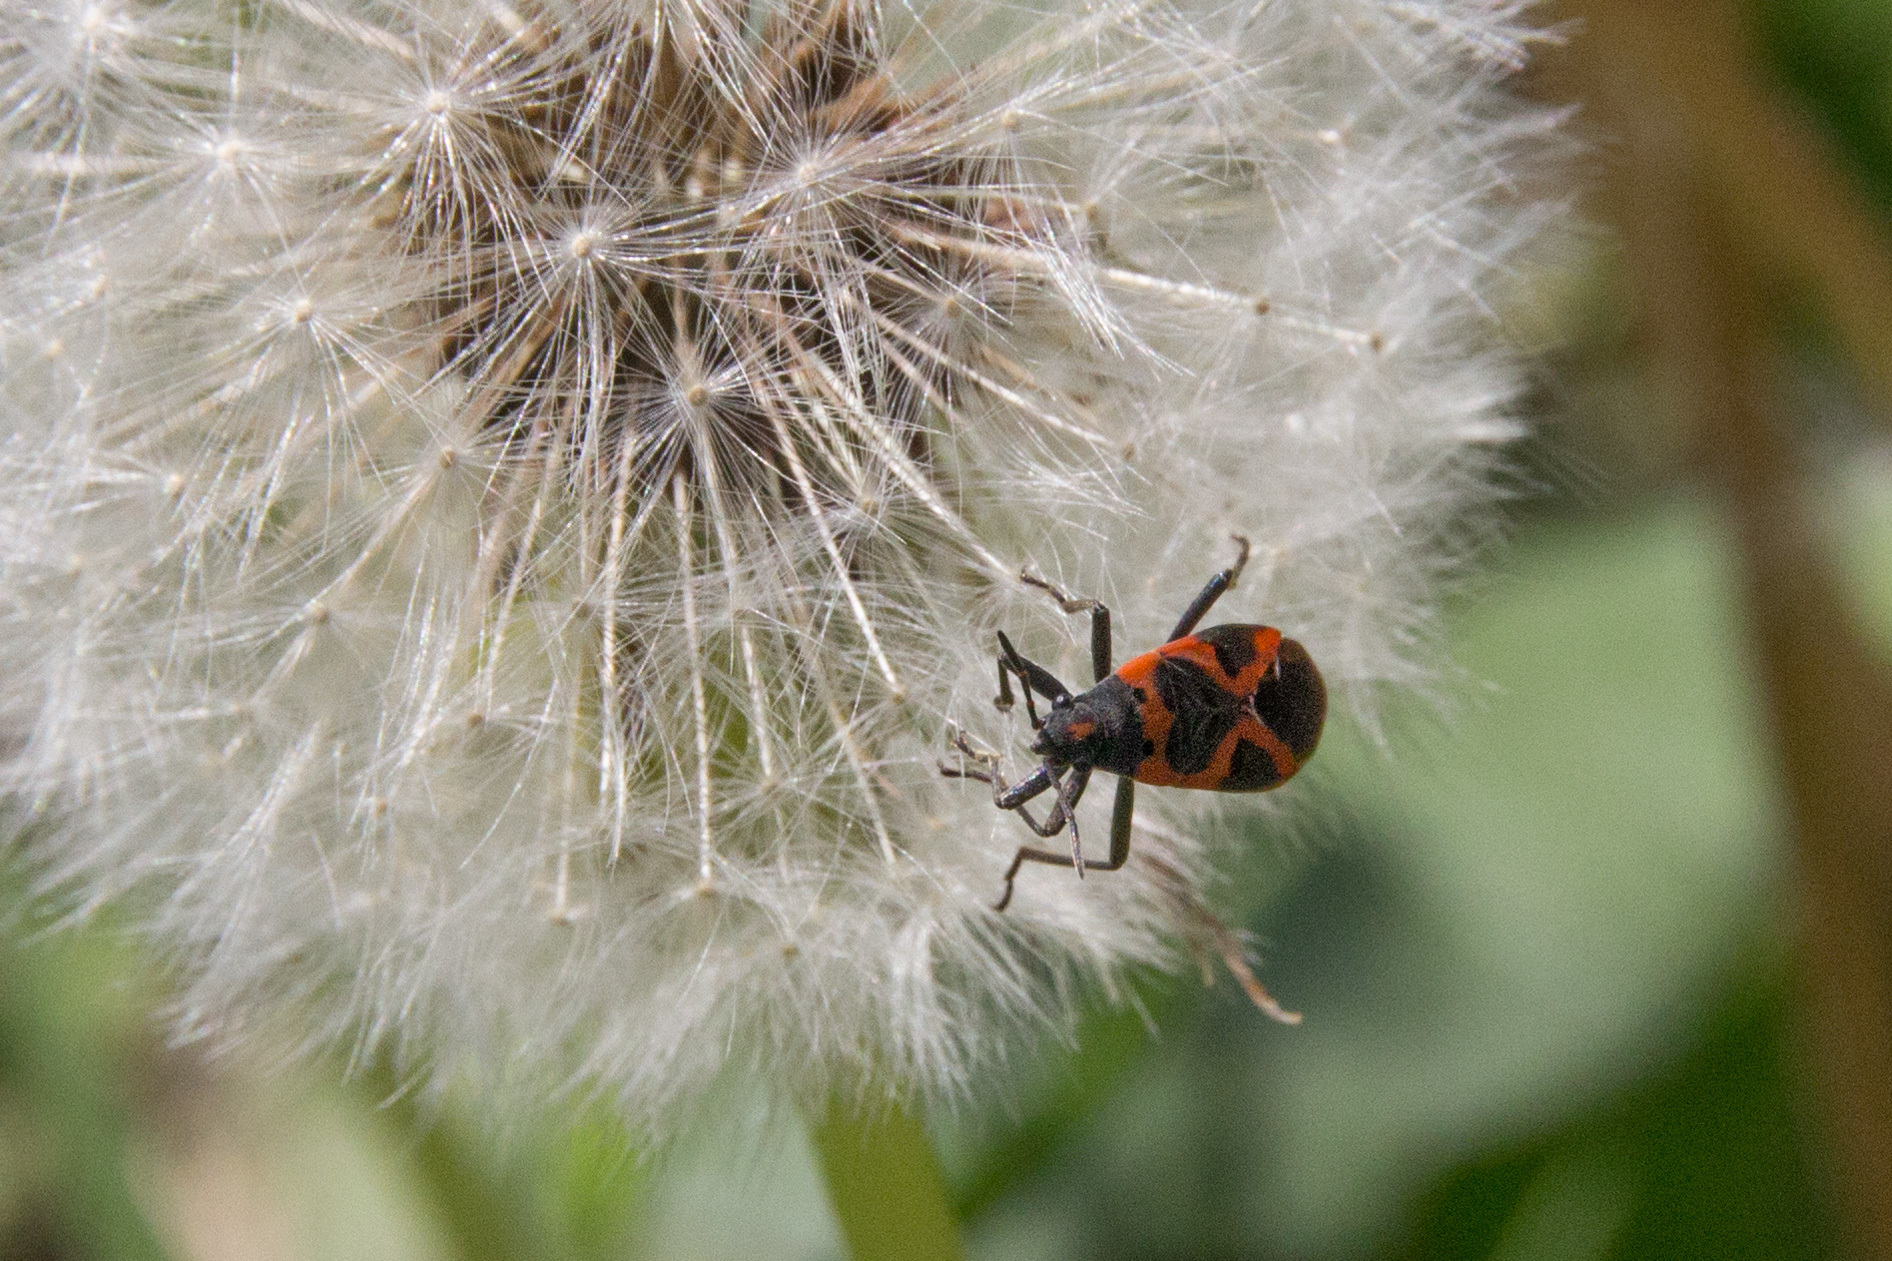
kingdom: Animalia
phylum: Arthropoda
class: Insecta
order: Hemiptera
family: Lygaeidae
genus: Lygaeus
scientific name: Lygaeus kalmii
